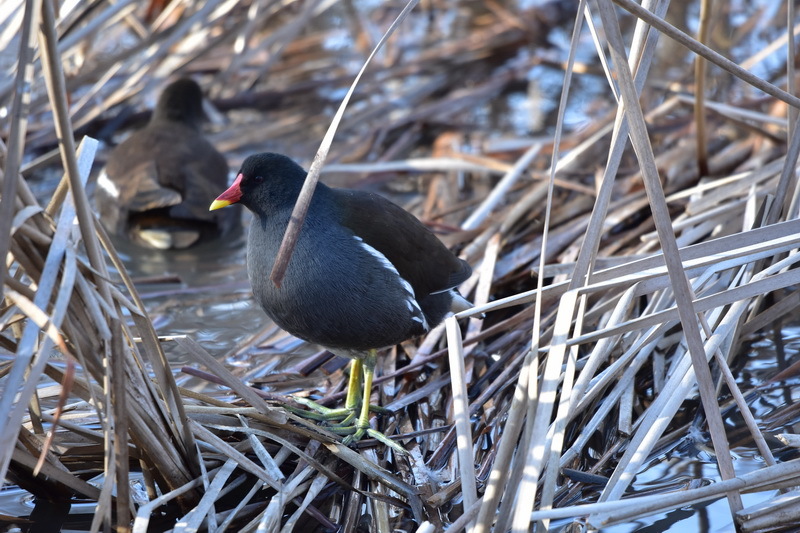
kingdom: Animalia
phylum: Chordata
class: Aves
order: Gruiformes
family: Rallidae
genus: Gallinula
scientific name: Gallinula chloropus
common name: Common moorhen
